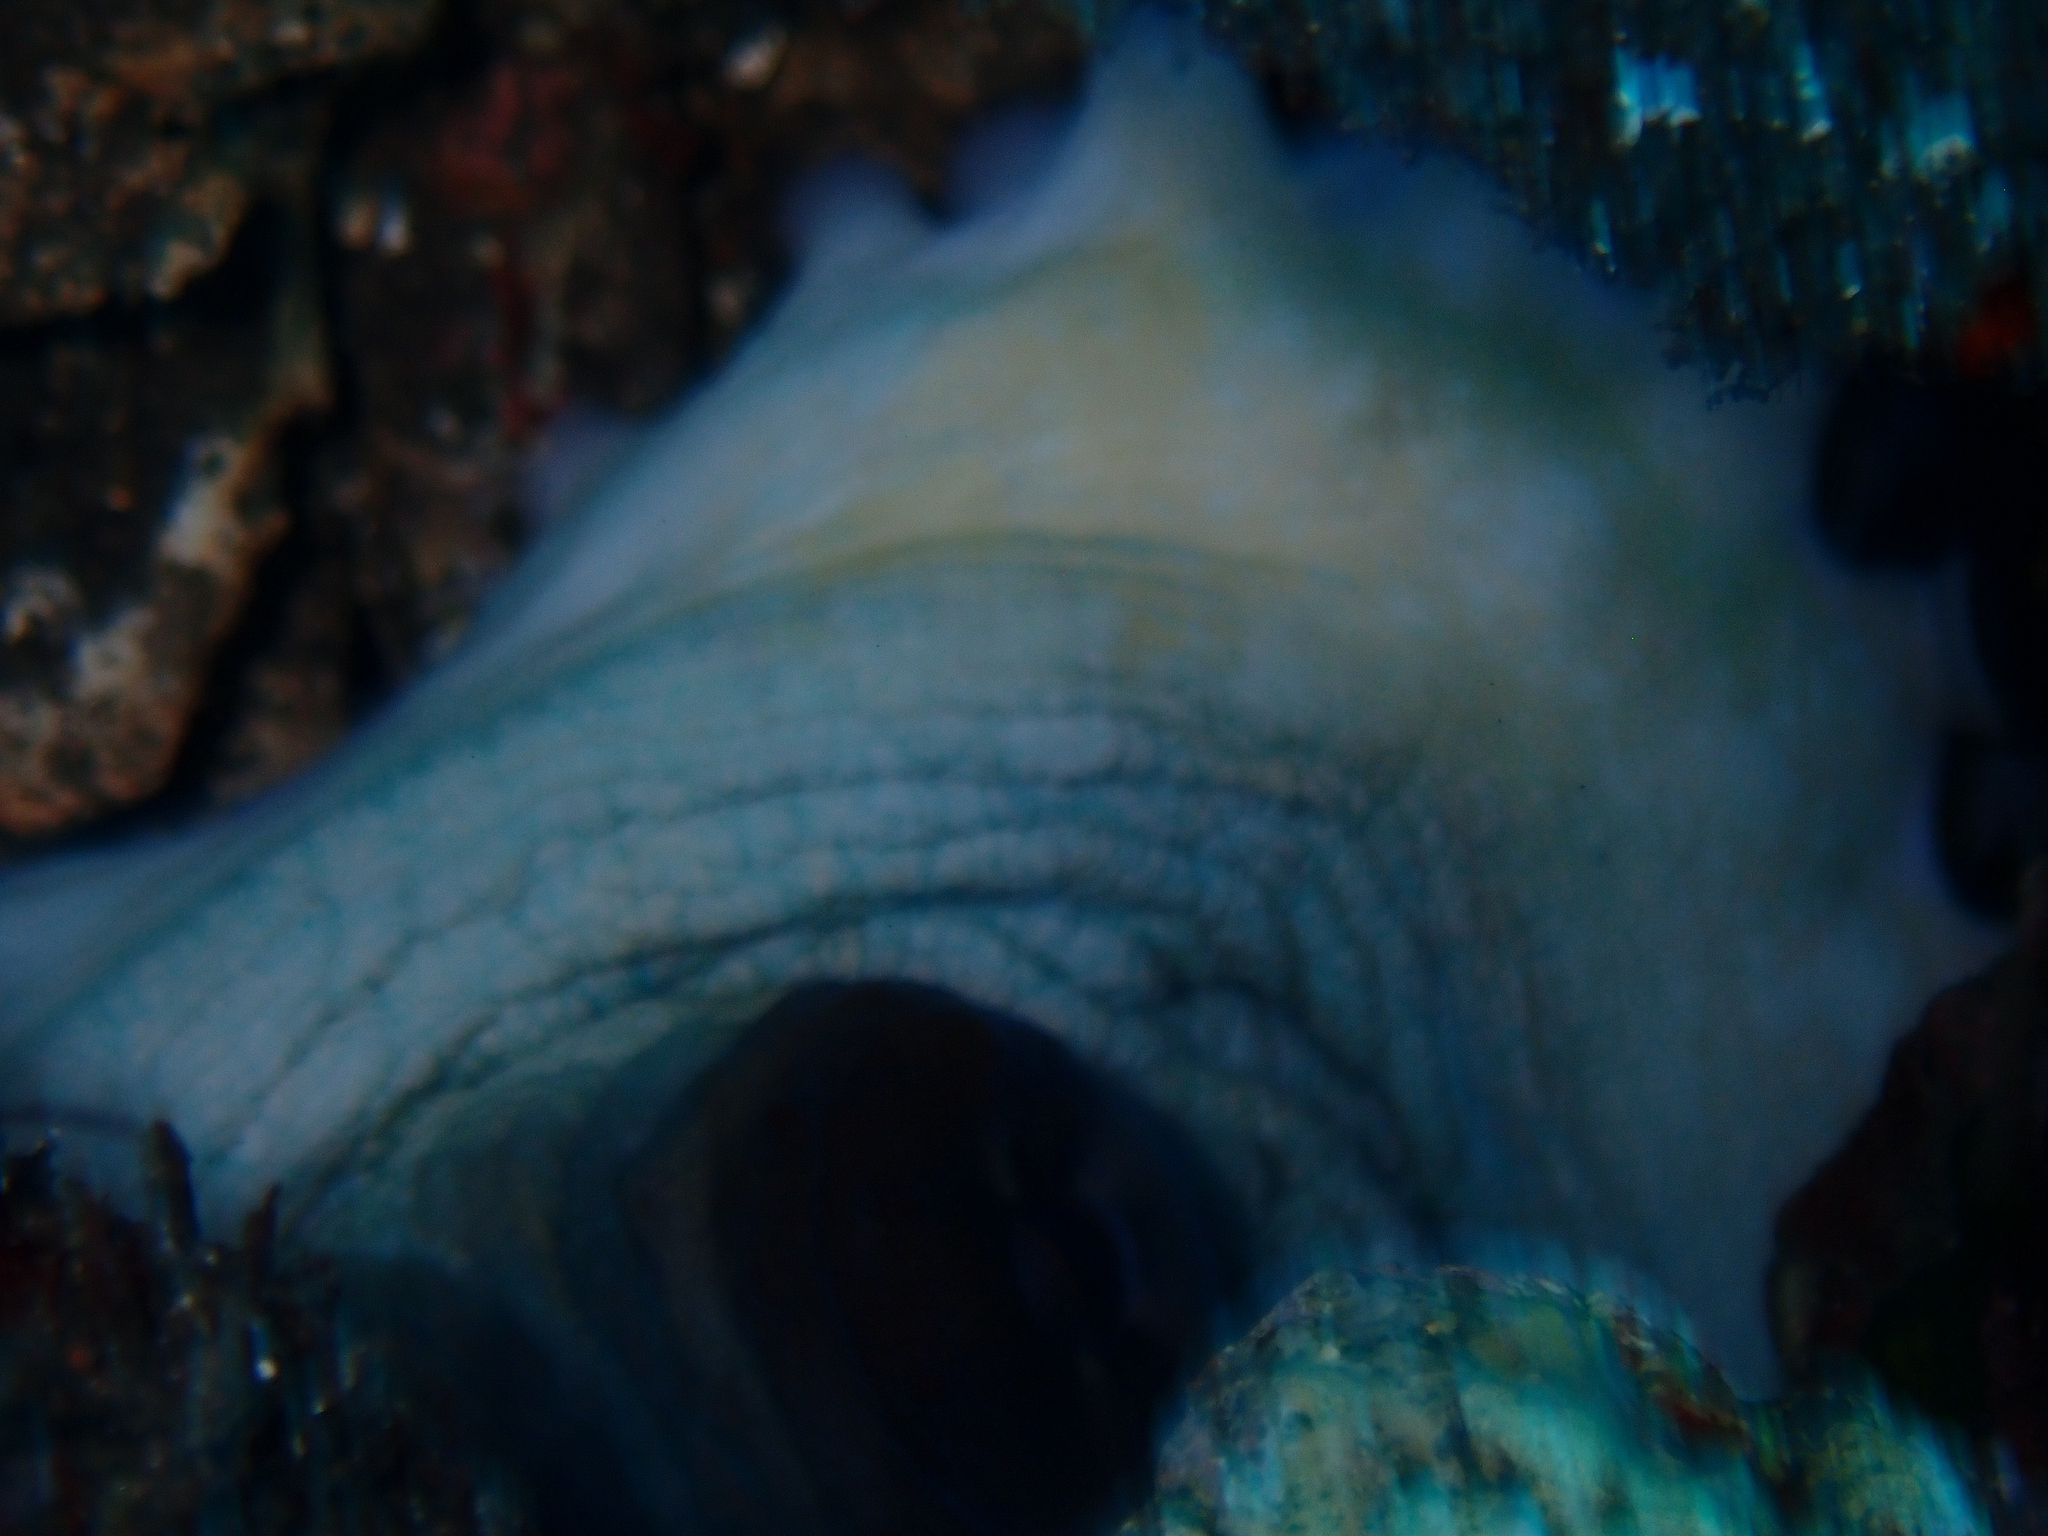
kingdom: Animalia
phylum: Mollusca
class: Cephalopoda
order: Octopoda
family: Octopodidae
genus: Octopus
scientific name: Octopus cyanea
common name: Cyane's octopus
